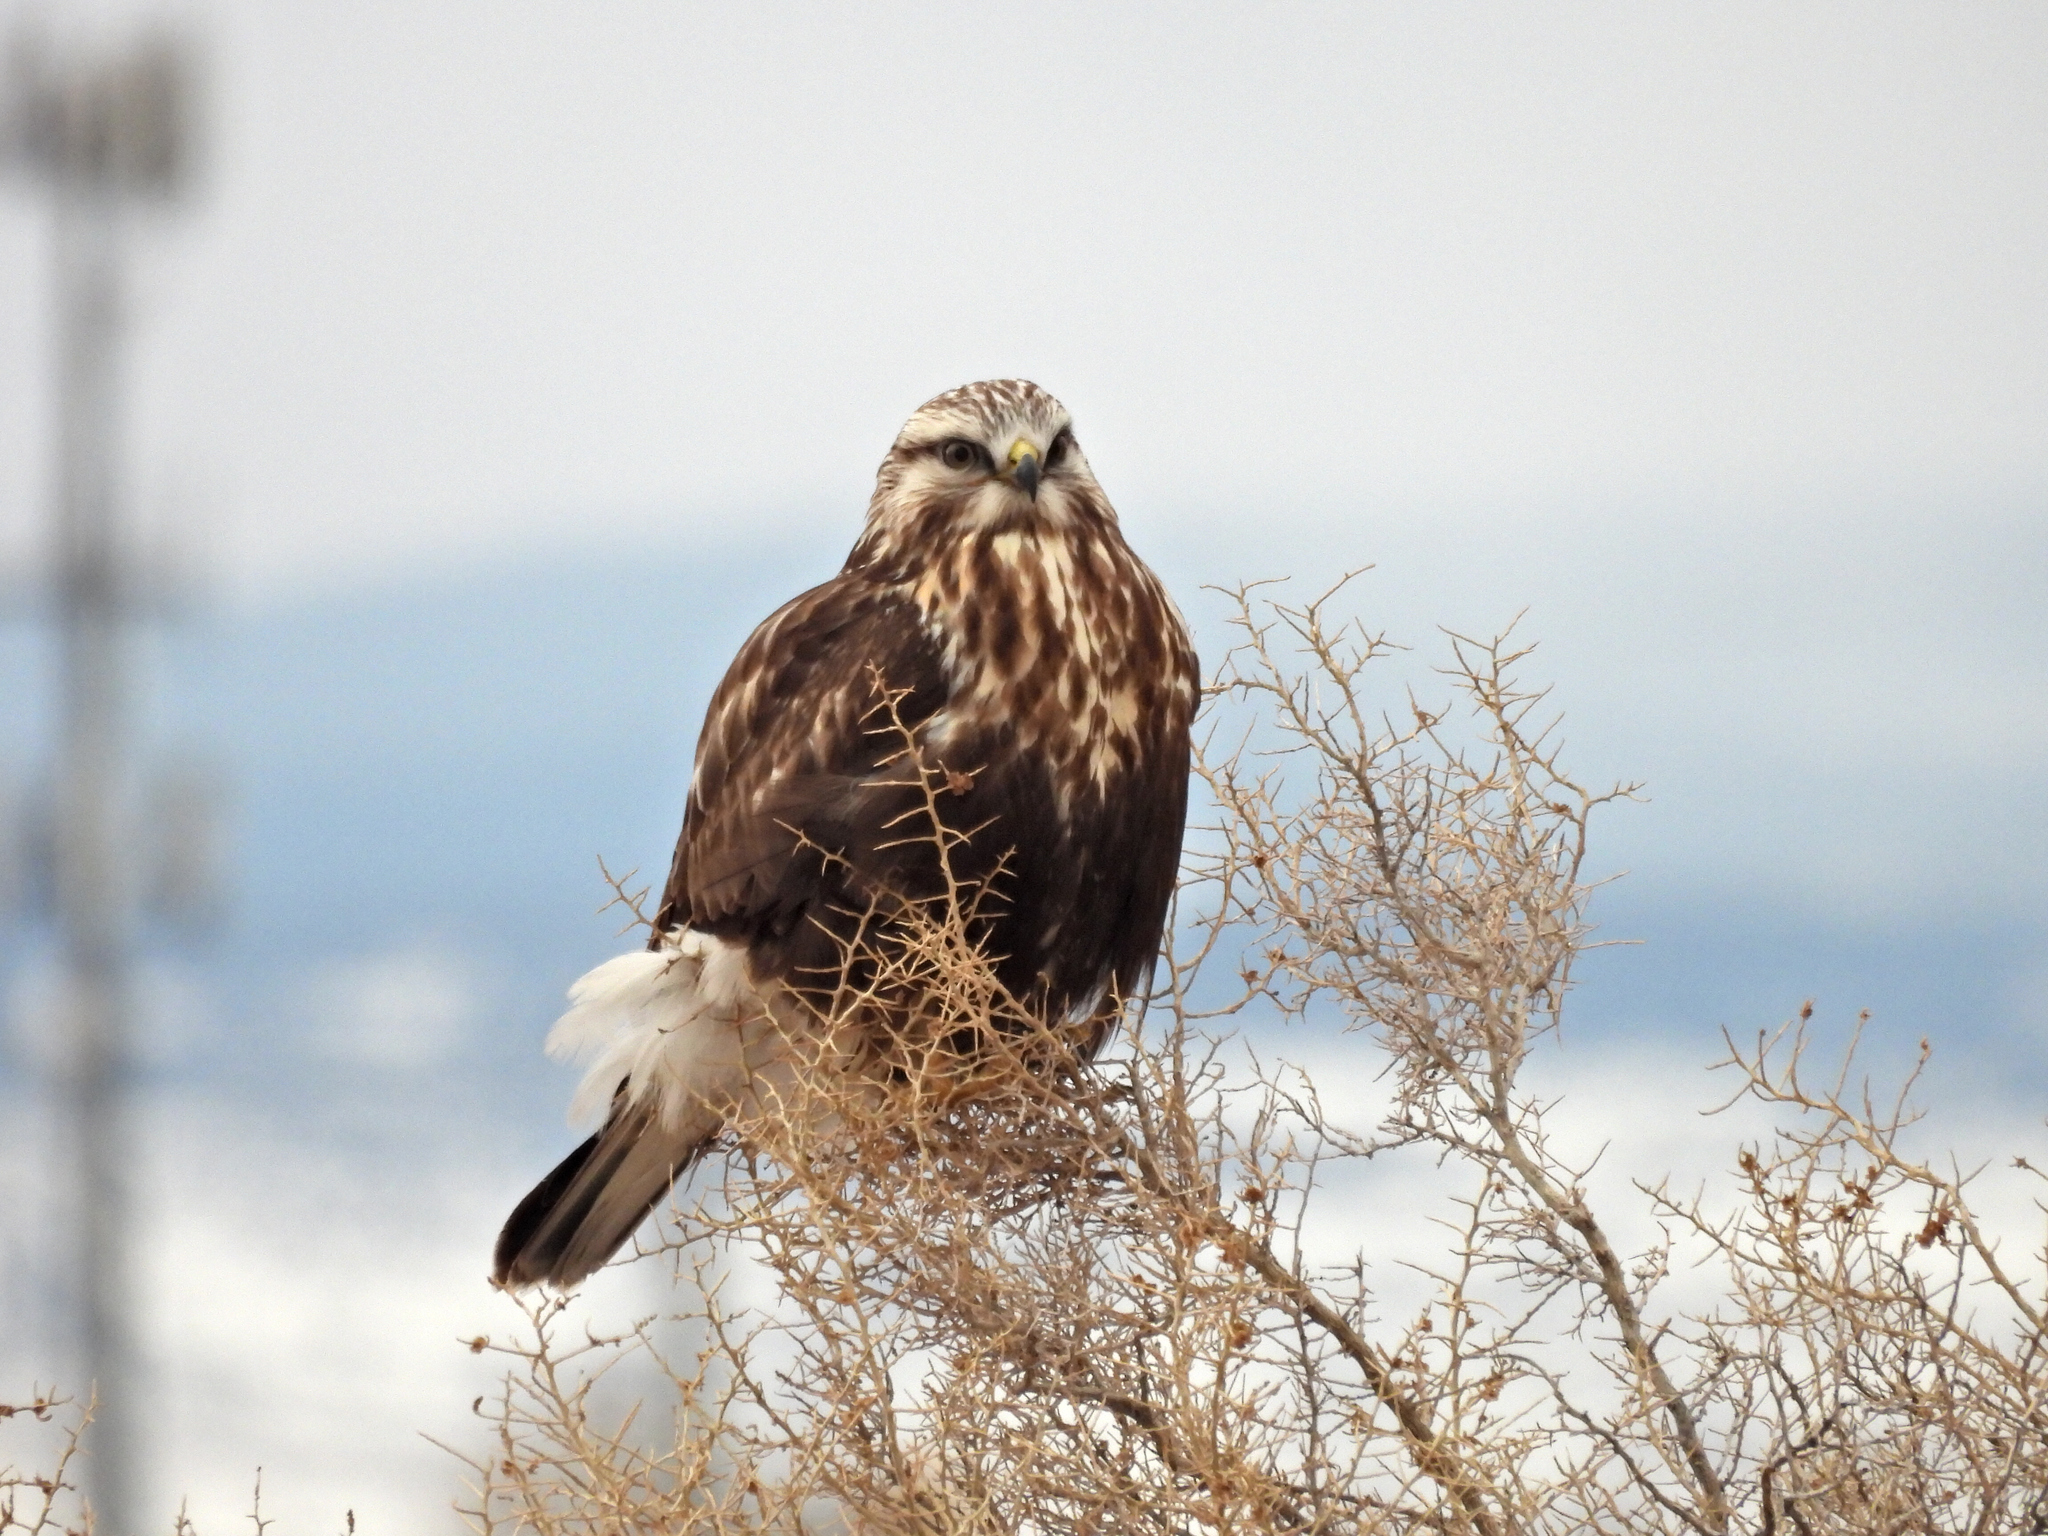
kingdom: Animalia
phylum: Chordata
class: Aves
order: Accipitriformes
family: Accipitridae
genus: Buteo
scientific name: Buteo lagopus
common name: Rough-legged buzzard
